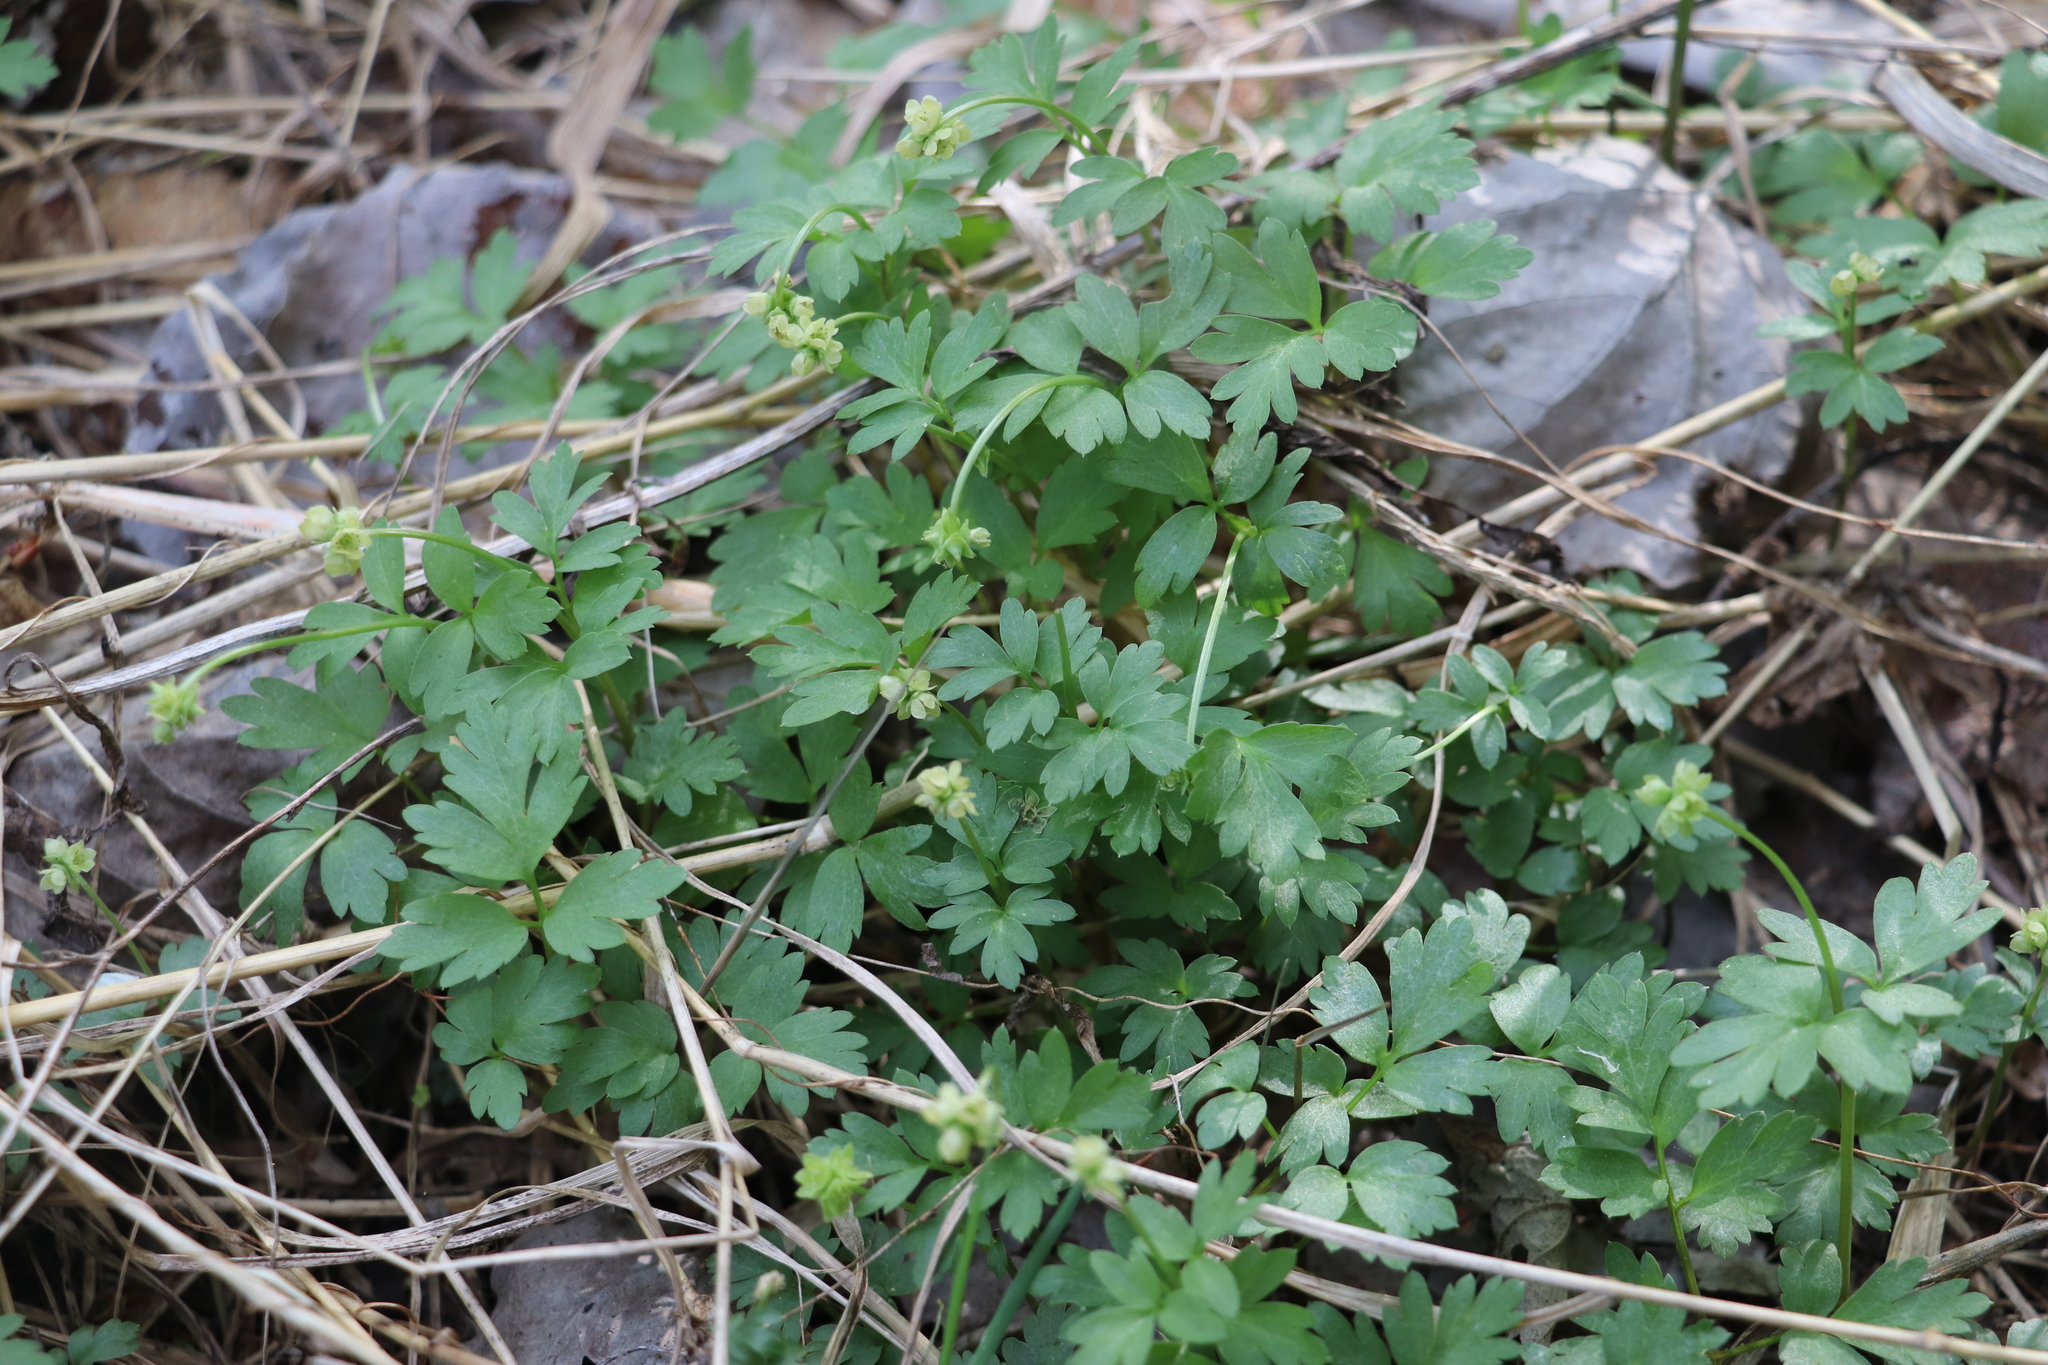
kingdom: Plantae
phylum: Tracheophyta
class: Magnoliopsida
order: Dipsacales
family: Viburnaceae
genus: Adoxa
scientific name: Adoxa moschatellina
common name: Moschatel
